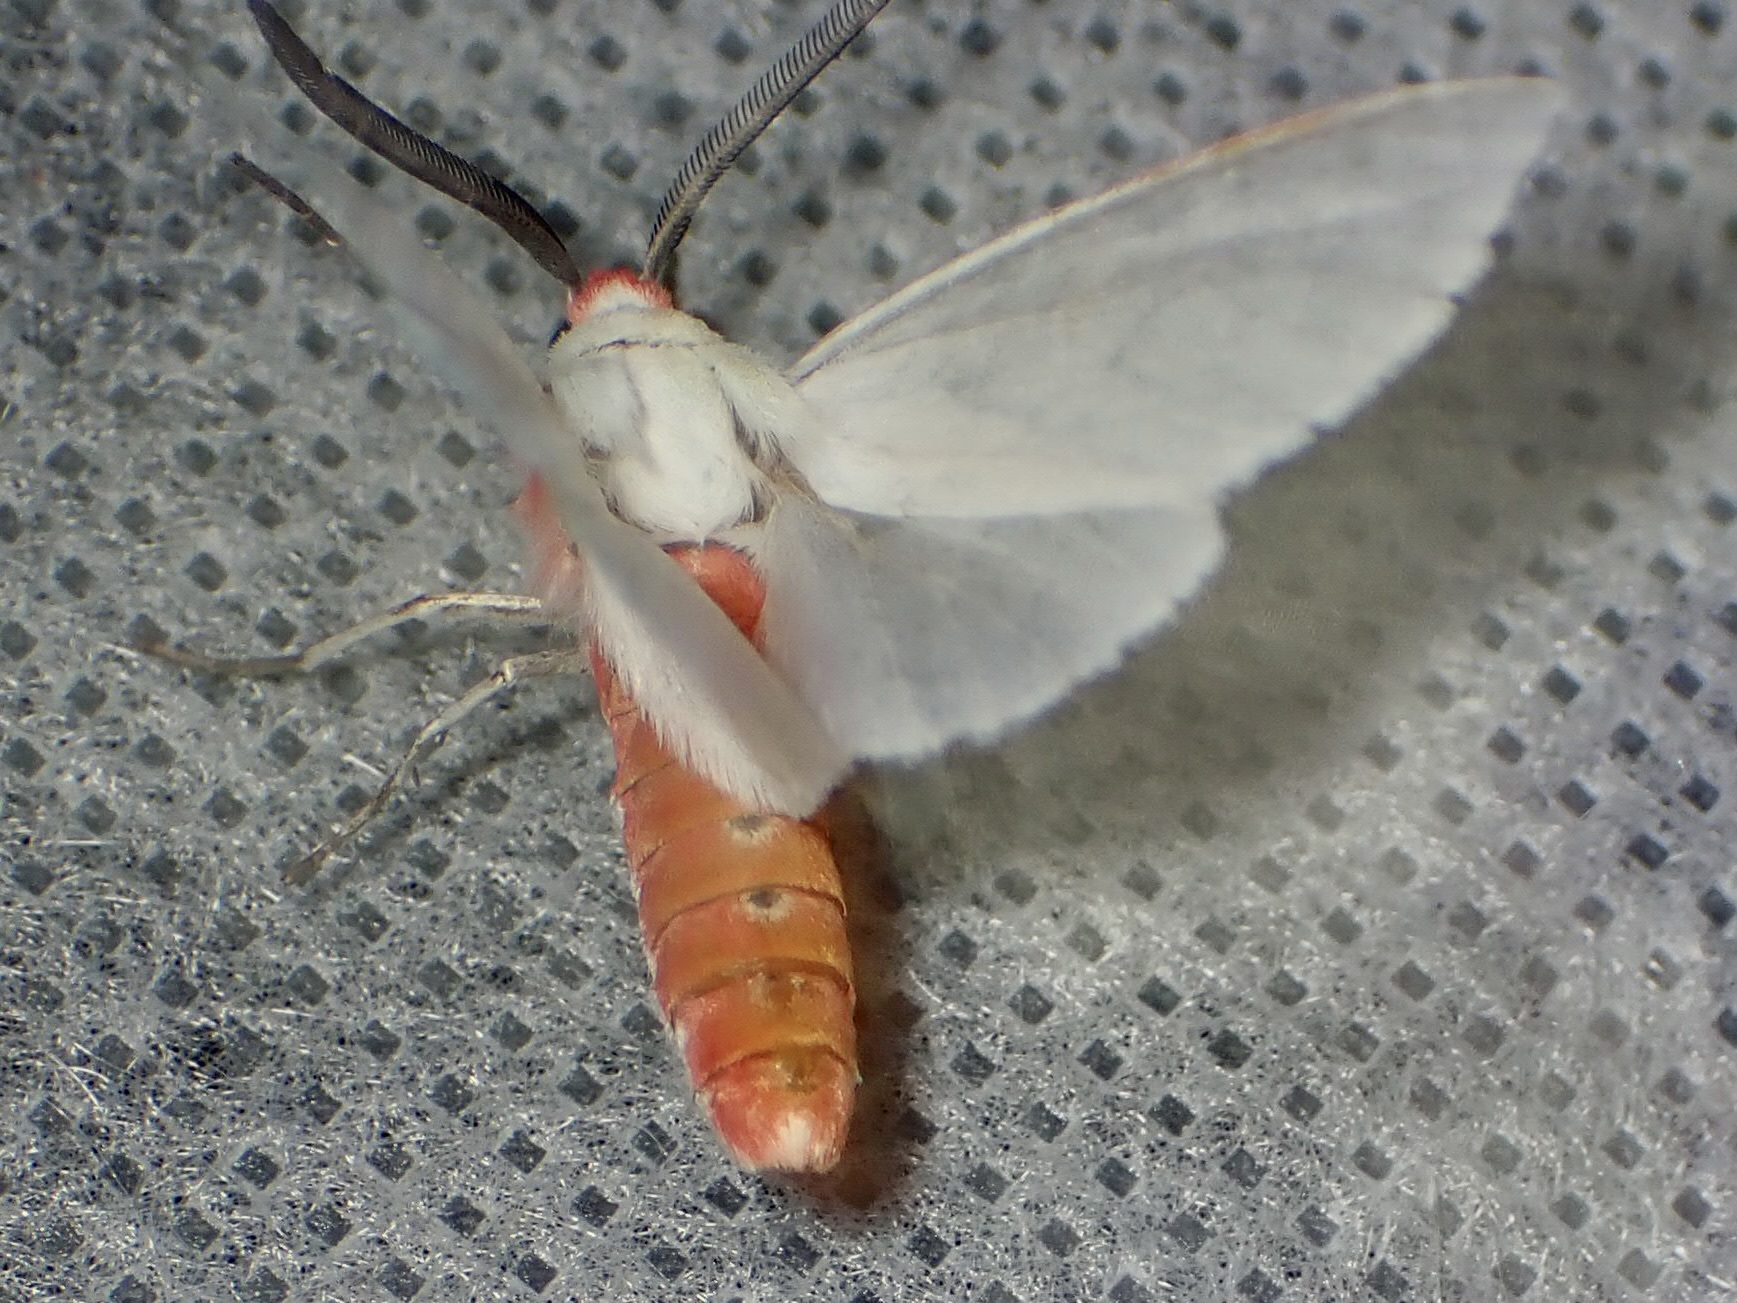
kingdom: Animalia
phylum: Arthropoda
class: Insecta
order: Lepidoptera
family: Erebidae
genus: Pygarctia
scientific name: Pygarctia roseicapitis
